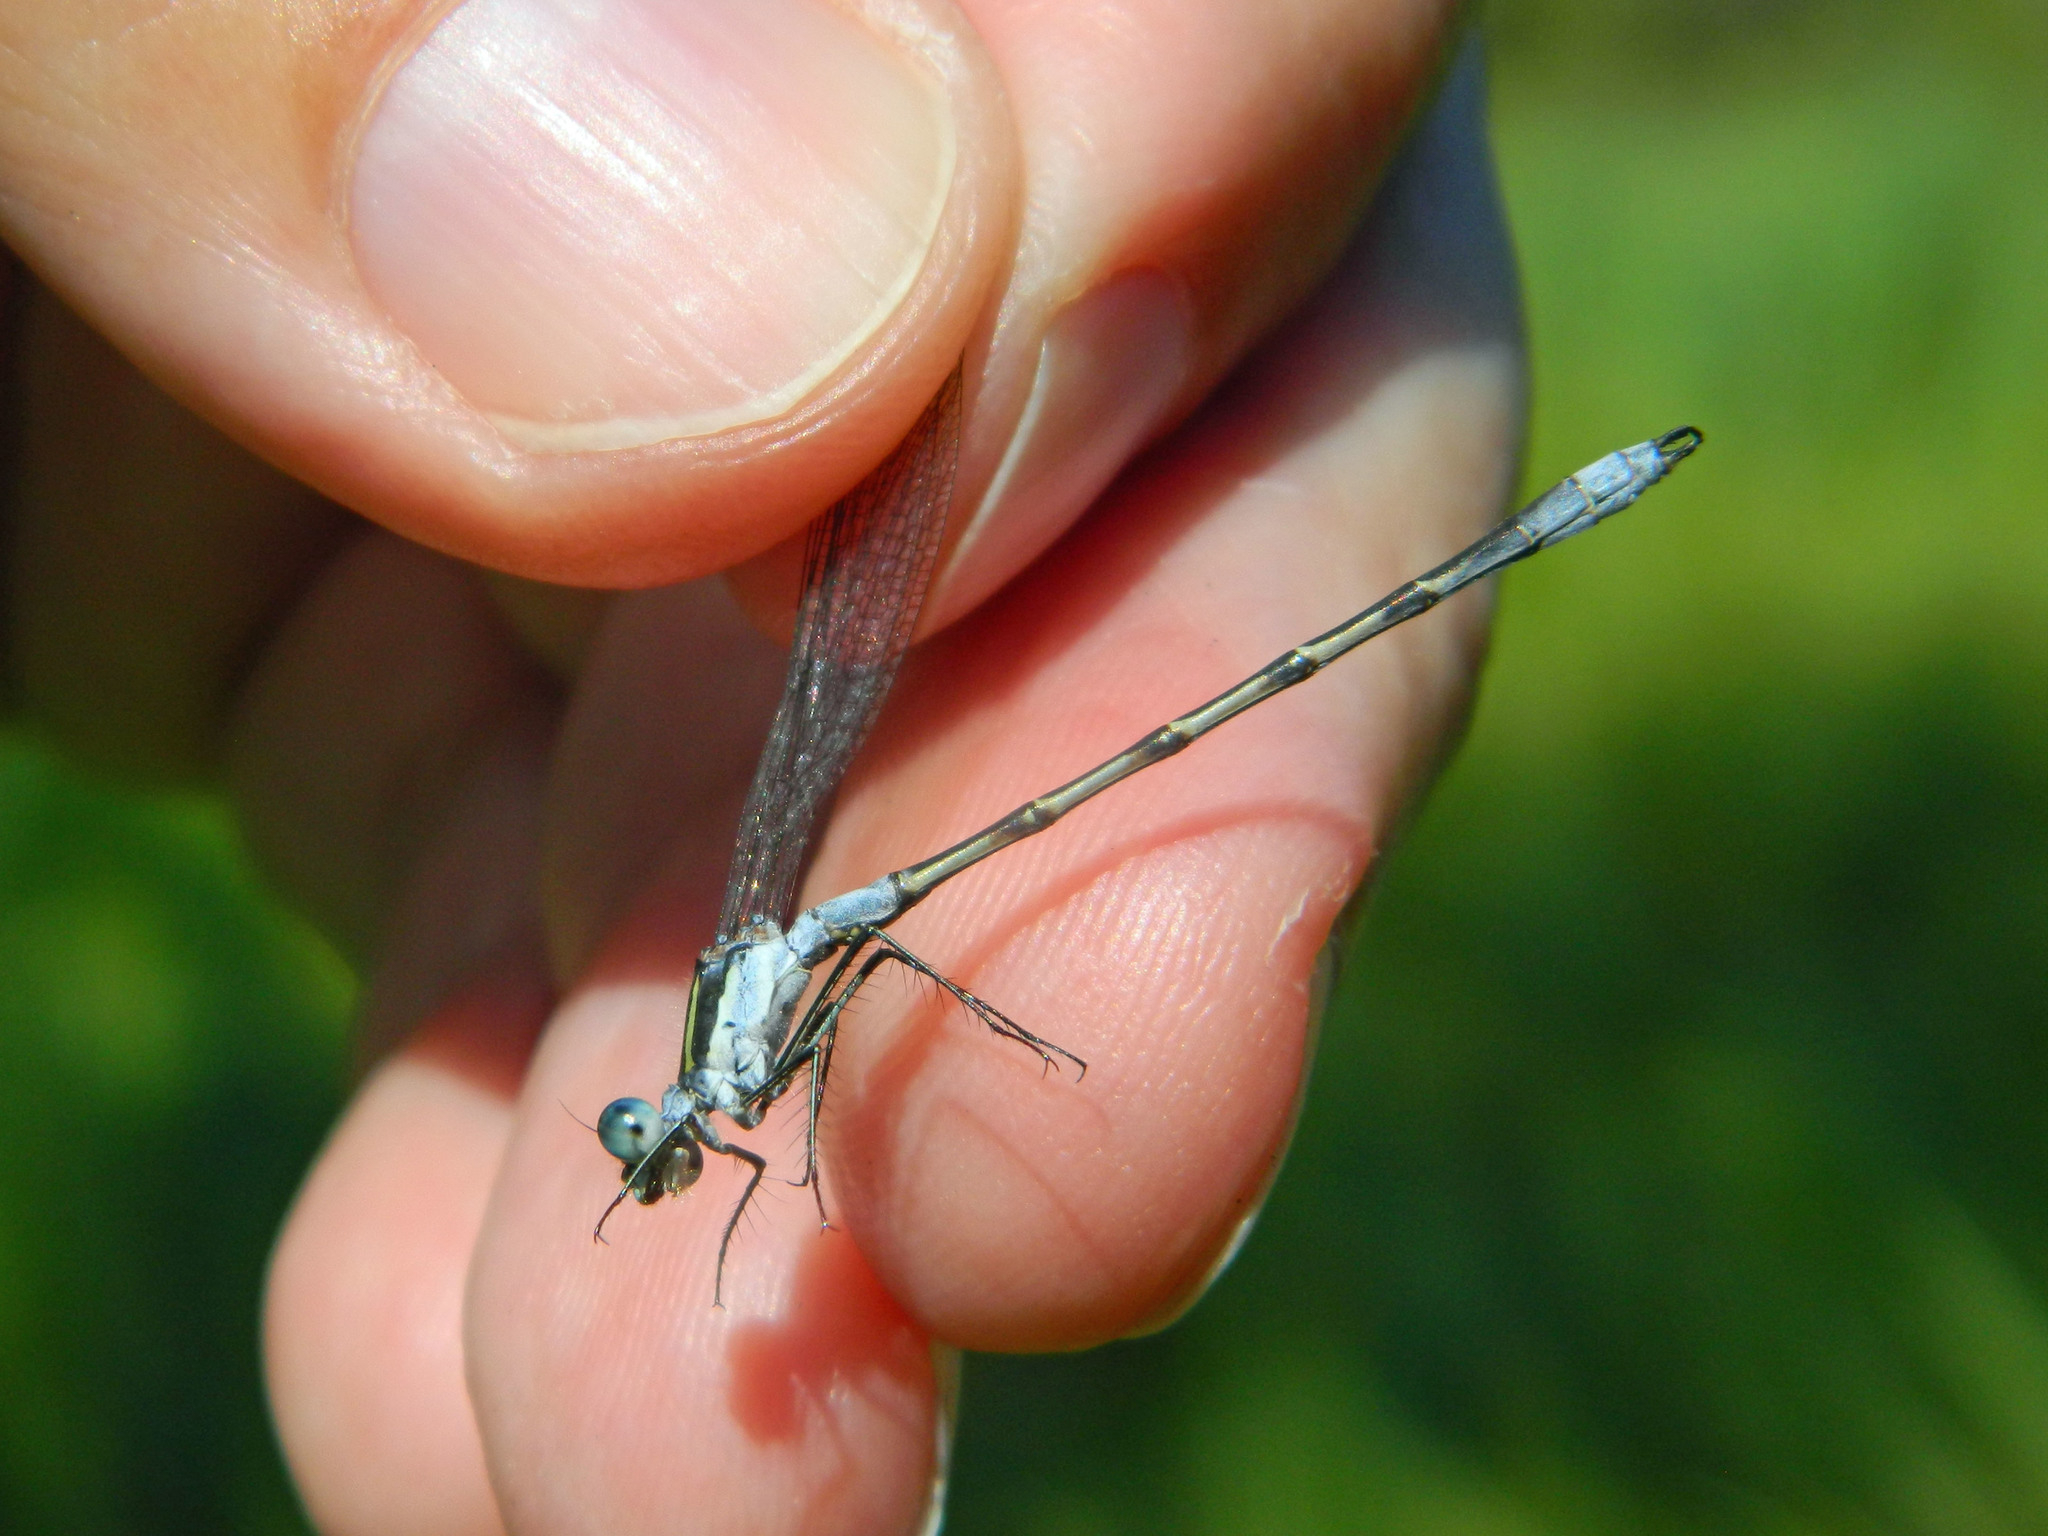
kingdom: Animalia
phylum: Arthropoda
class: Insecta
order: Odonata
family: Lestidae
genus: Lestes
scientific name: Lestes disjunctus
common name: Northern spreadwing
